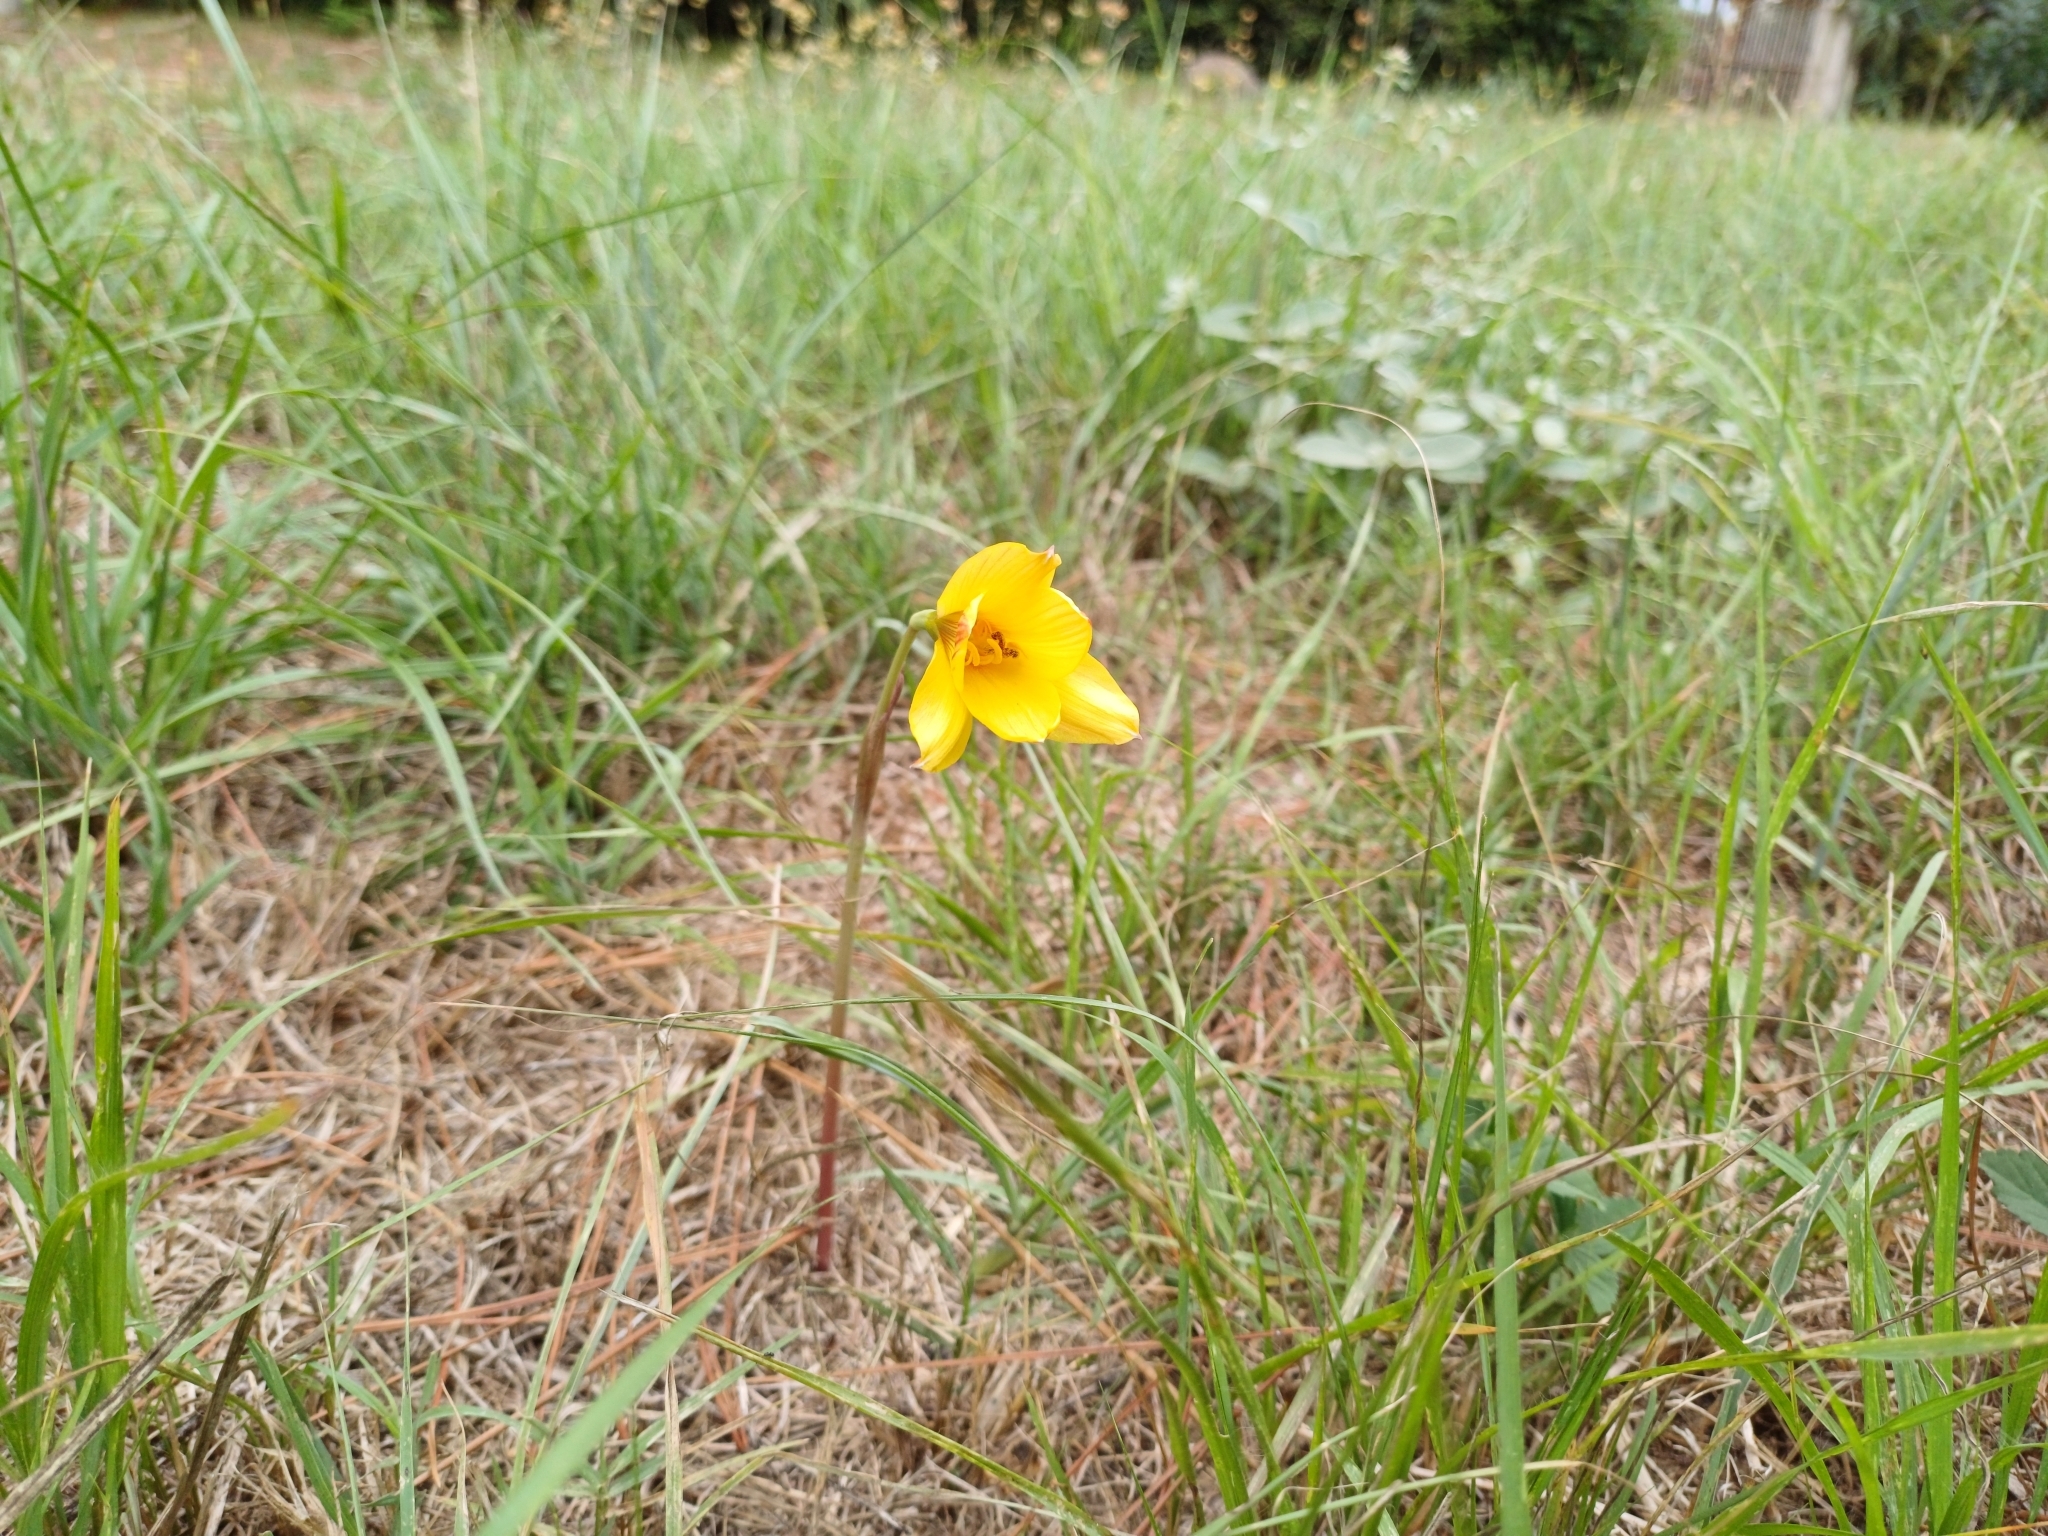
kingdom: Plantae
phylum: Tracheophyta
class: Liliopsida
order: Asparagales
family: Amaryllidaceae
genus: Zephyranthes
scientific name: Zephyranthes tubispatha
